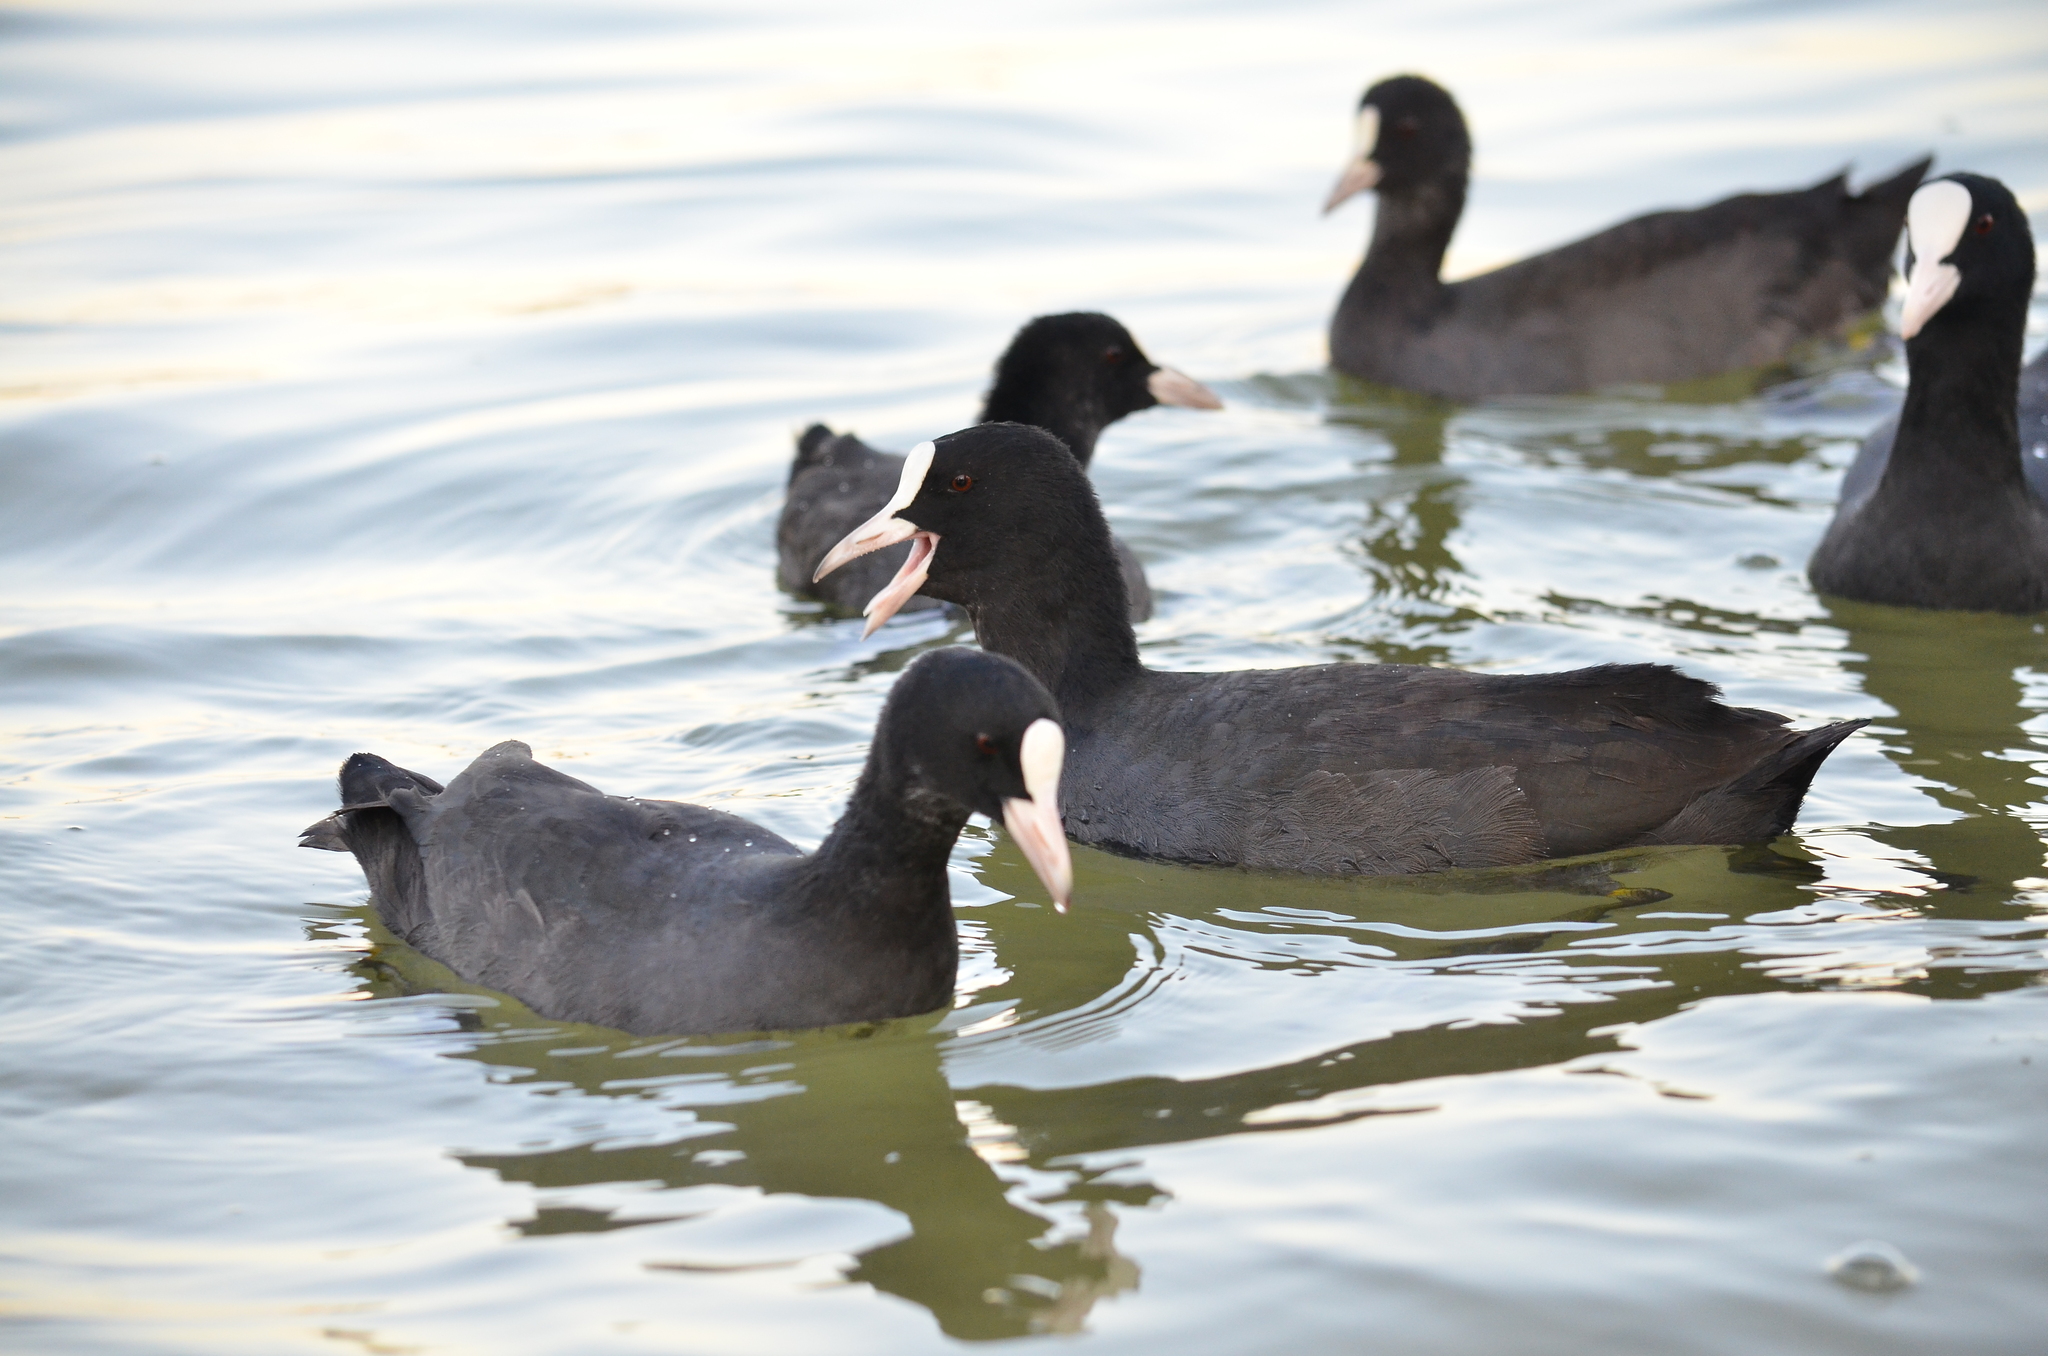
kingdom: Animalia
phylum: Chordata
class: Aves
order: Gruiformes
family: Rallidae
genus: Fulica
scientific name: Fulica atra
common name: Eurasian coot
